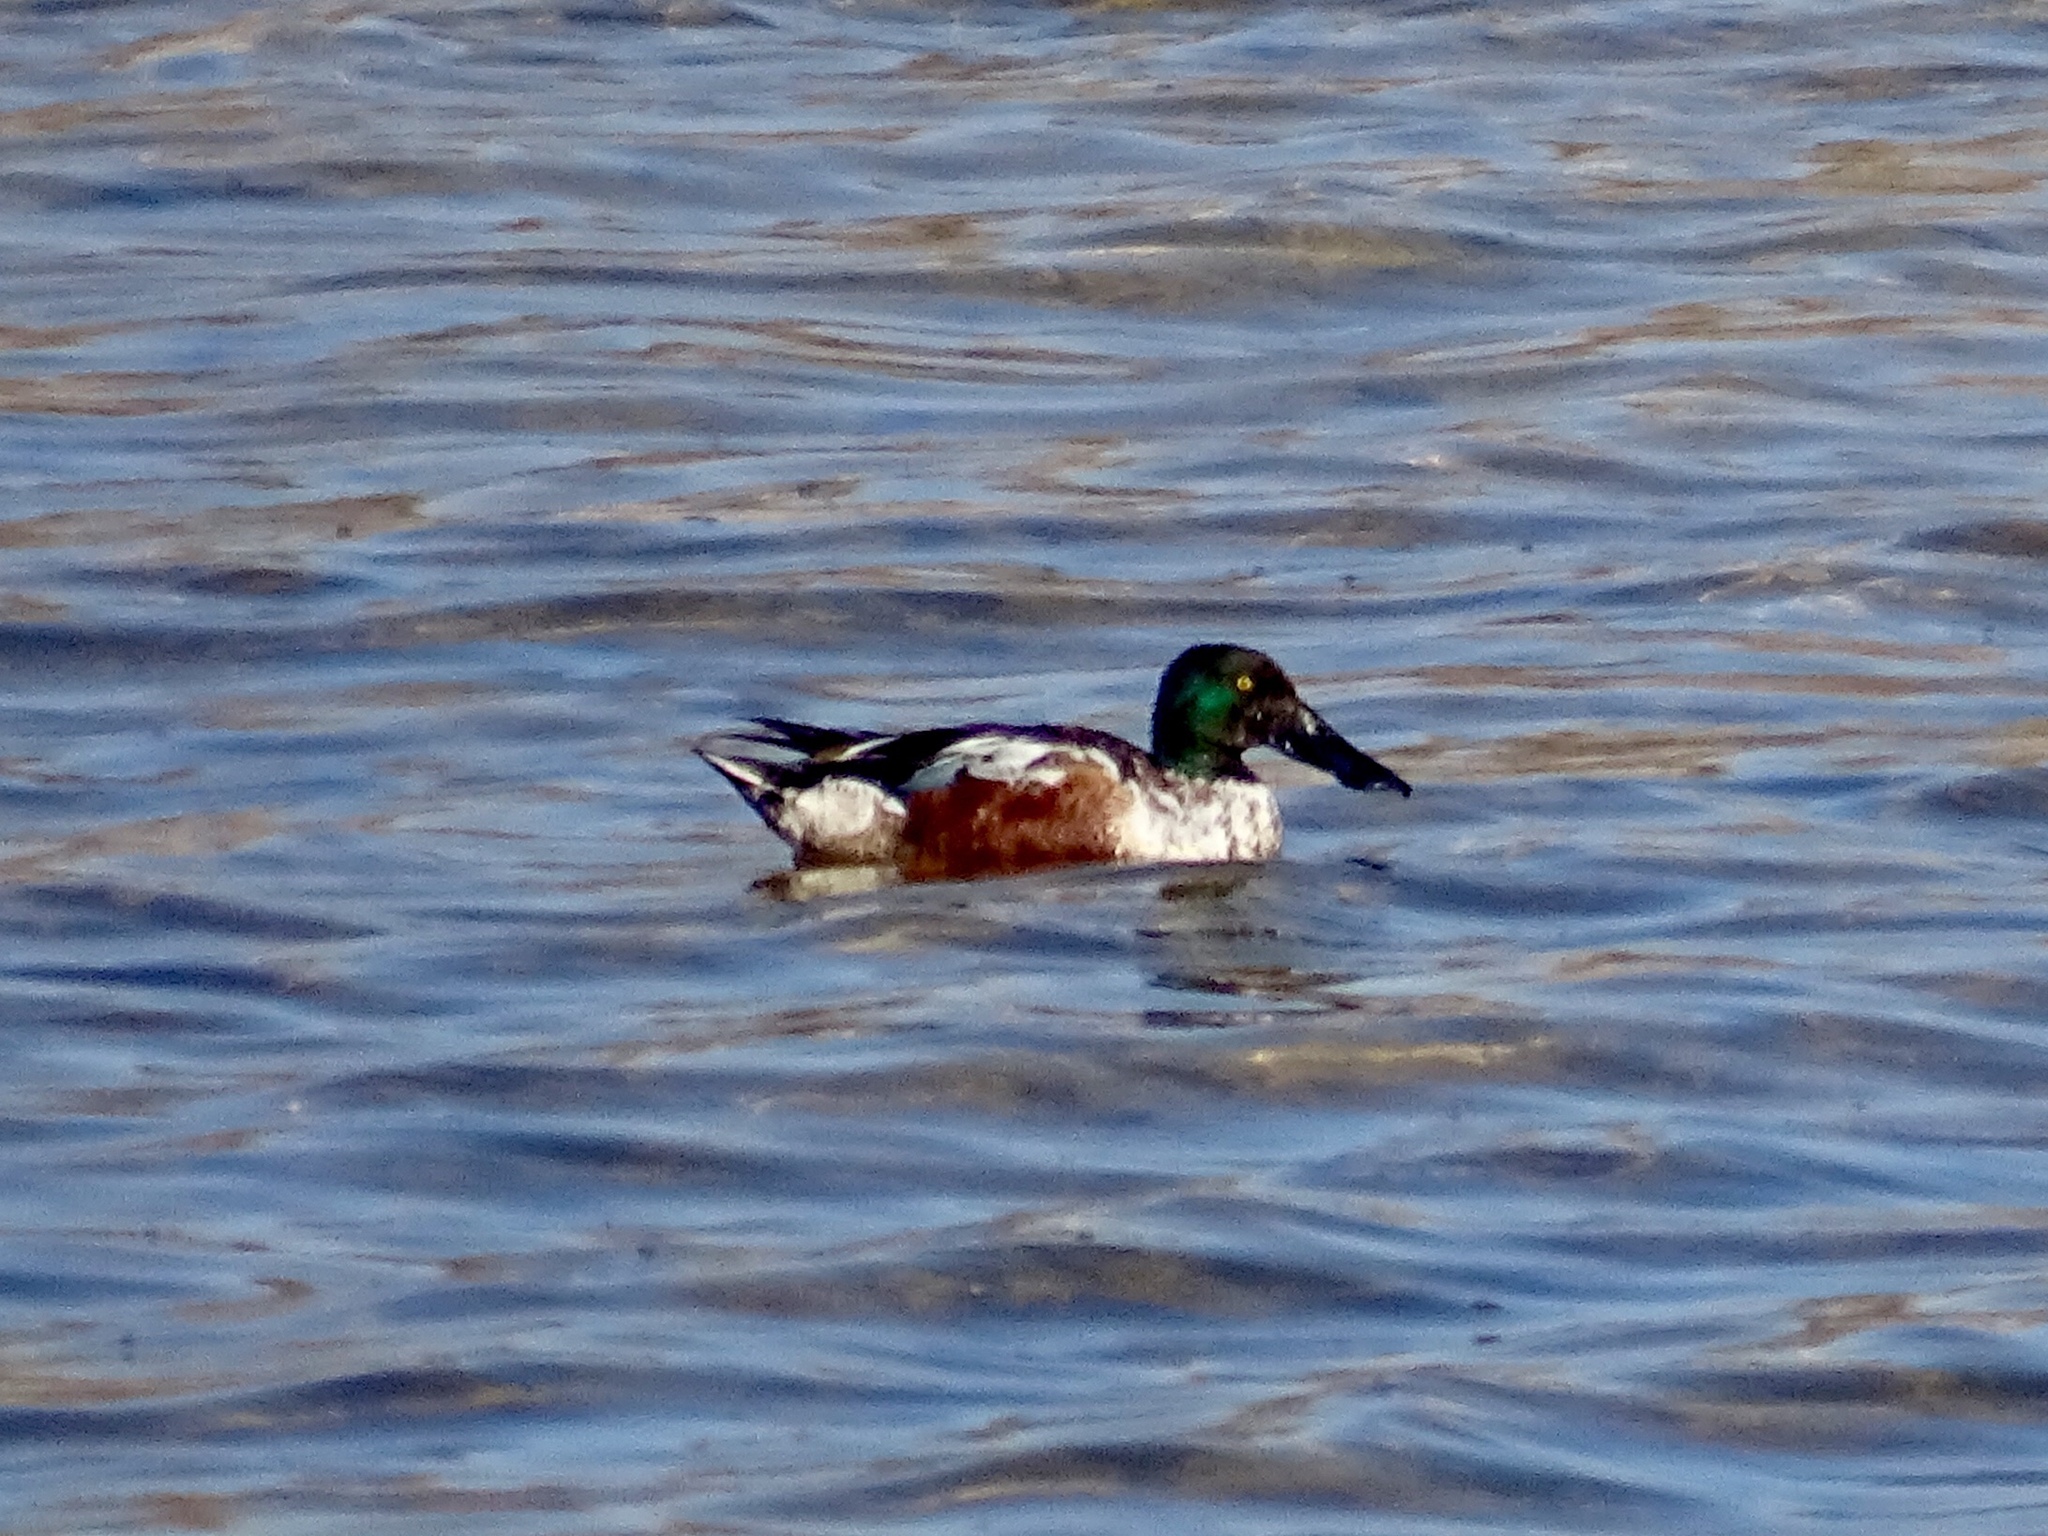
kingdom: Animalia
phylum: Chordata
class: Aves
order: Anseriformes
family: Anatidae
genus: Spatula
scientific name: Spatula clypeata
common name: Northern shoveler
